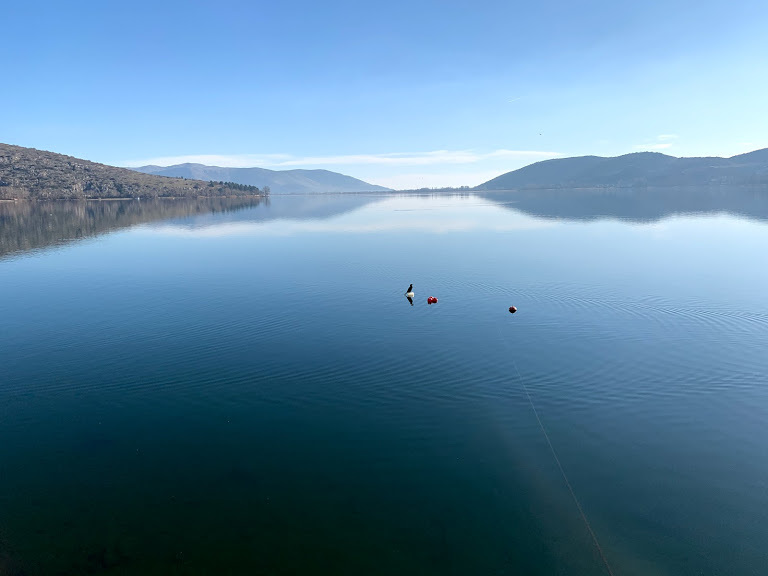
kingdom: Animalia
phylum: Chordata
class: Aves
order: Suliformes
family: Phalacrocoracidae
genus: Microcarbo
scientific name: Microcarbo pygmaeus
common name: Pygmy cormorant
